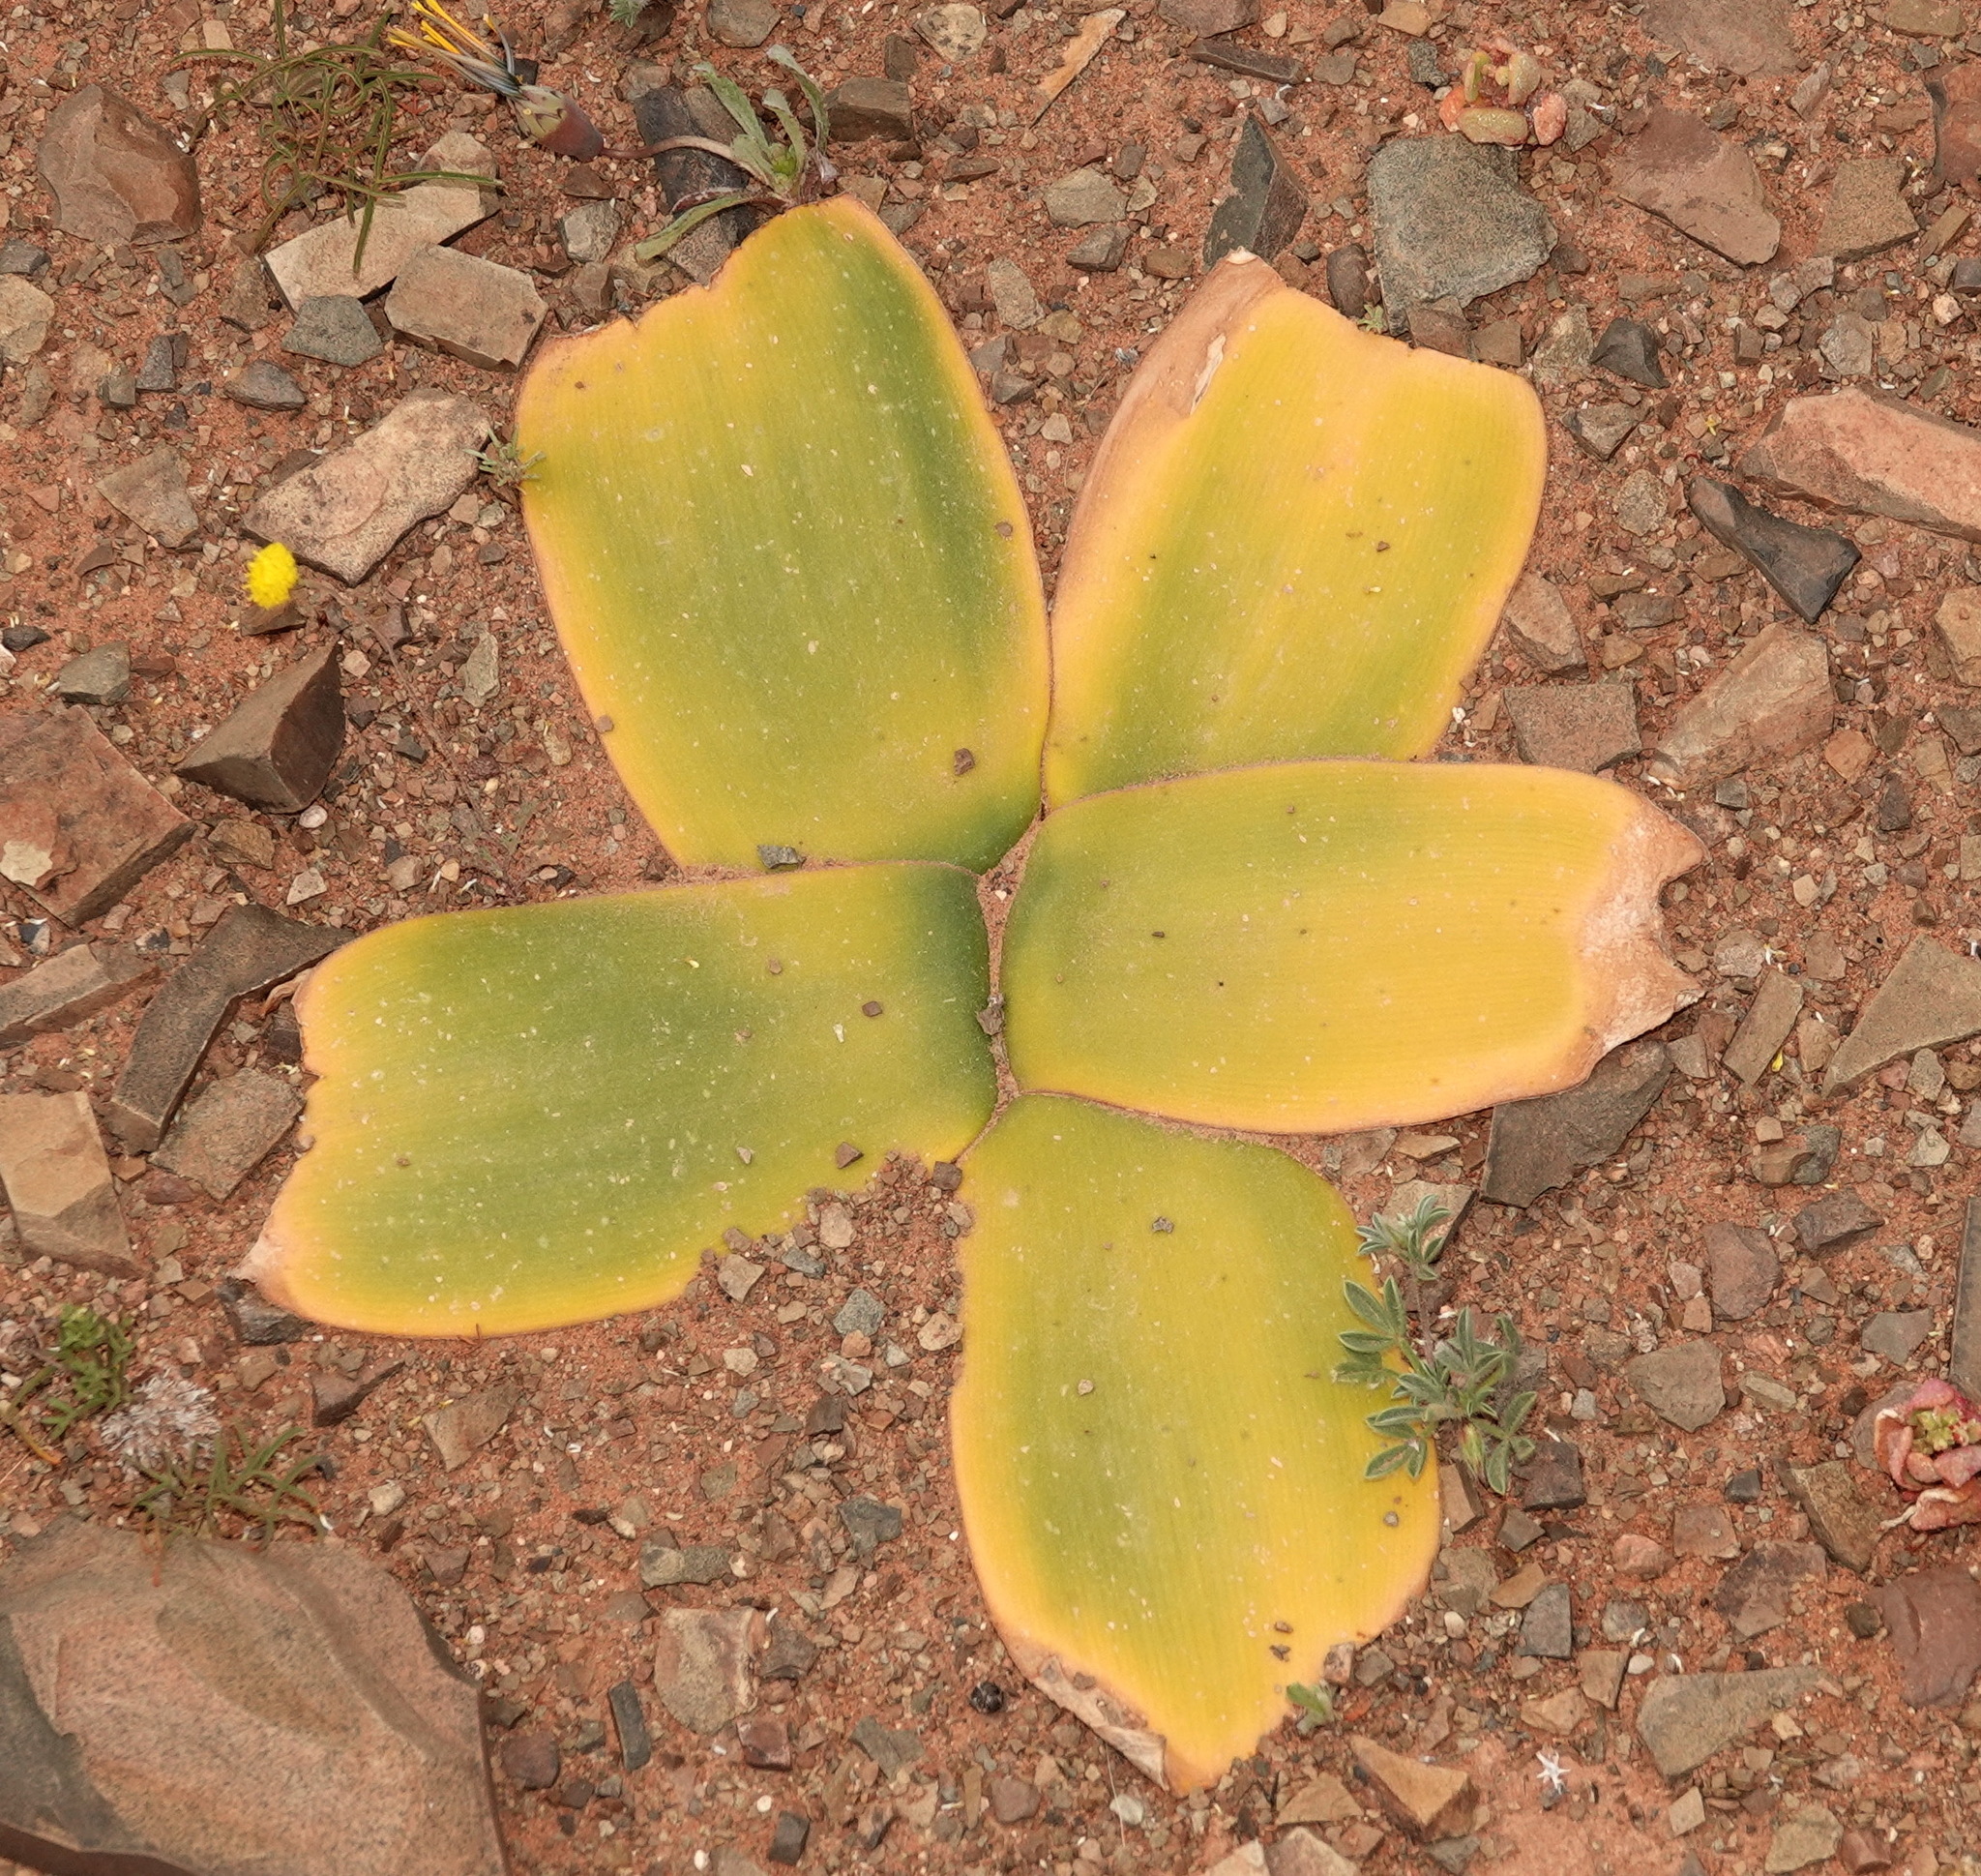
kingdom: Plantae
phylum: Tracheophyta
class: Liliopsida
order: Asparagales
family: Amaryllidaceae
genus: Brunsvigia
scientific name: Brunsvigia bosmaniae
